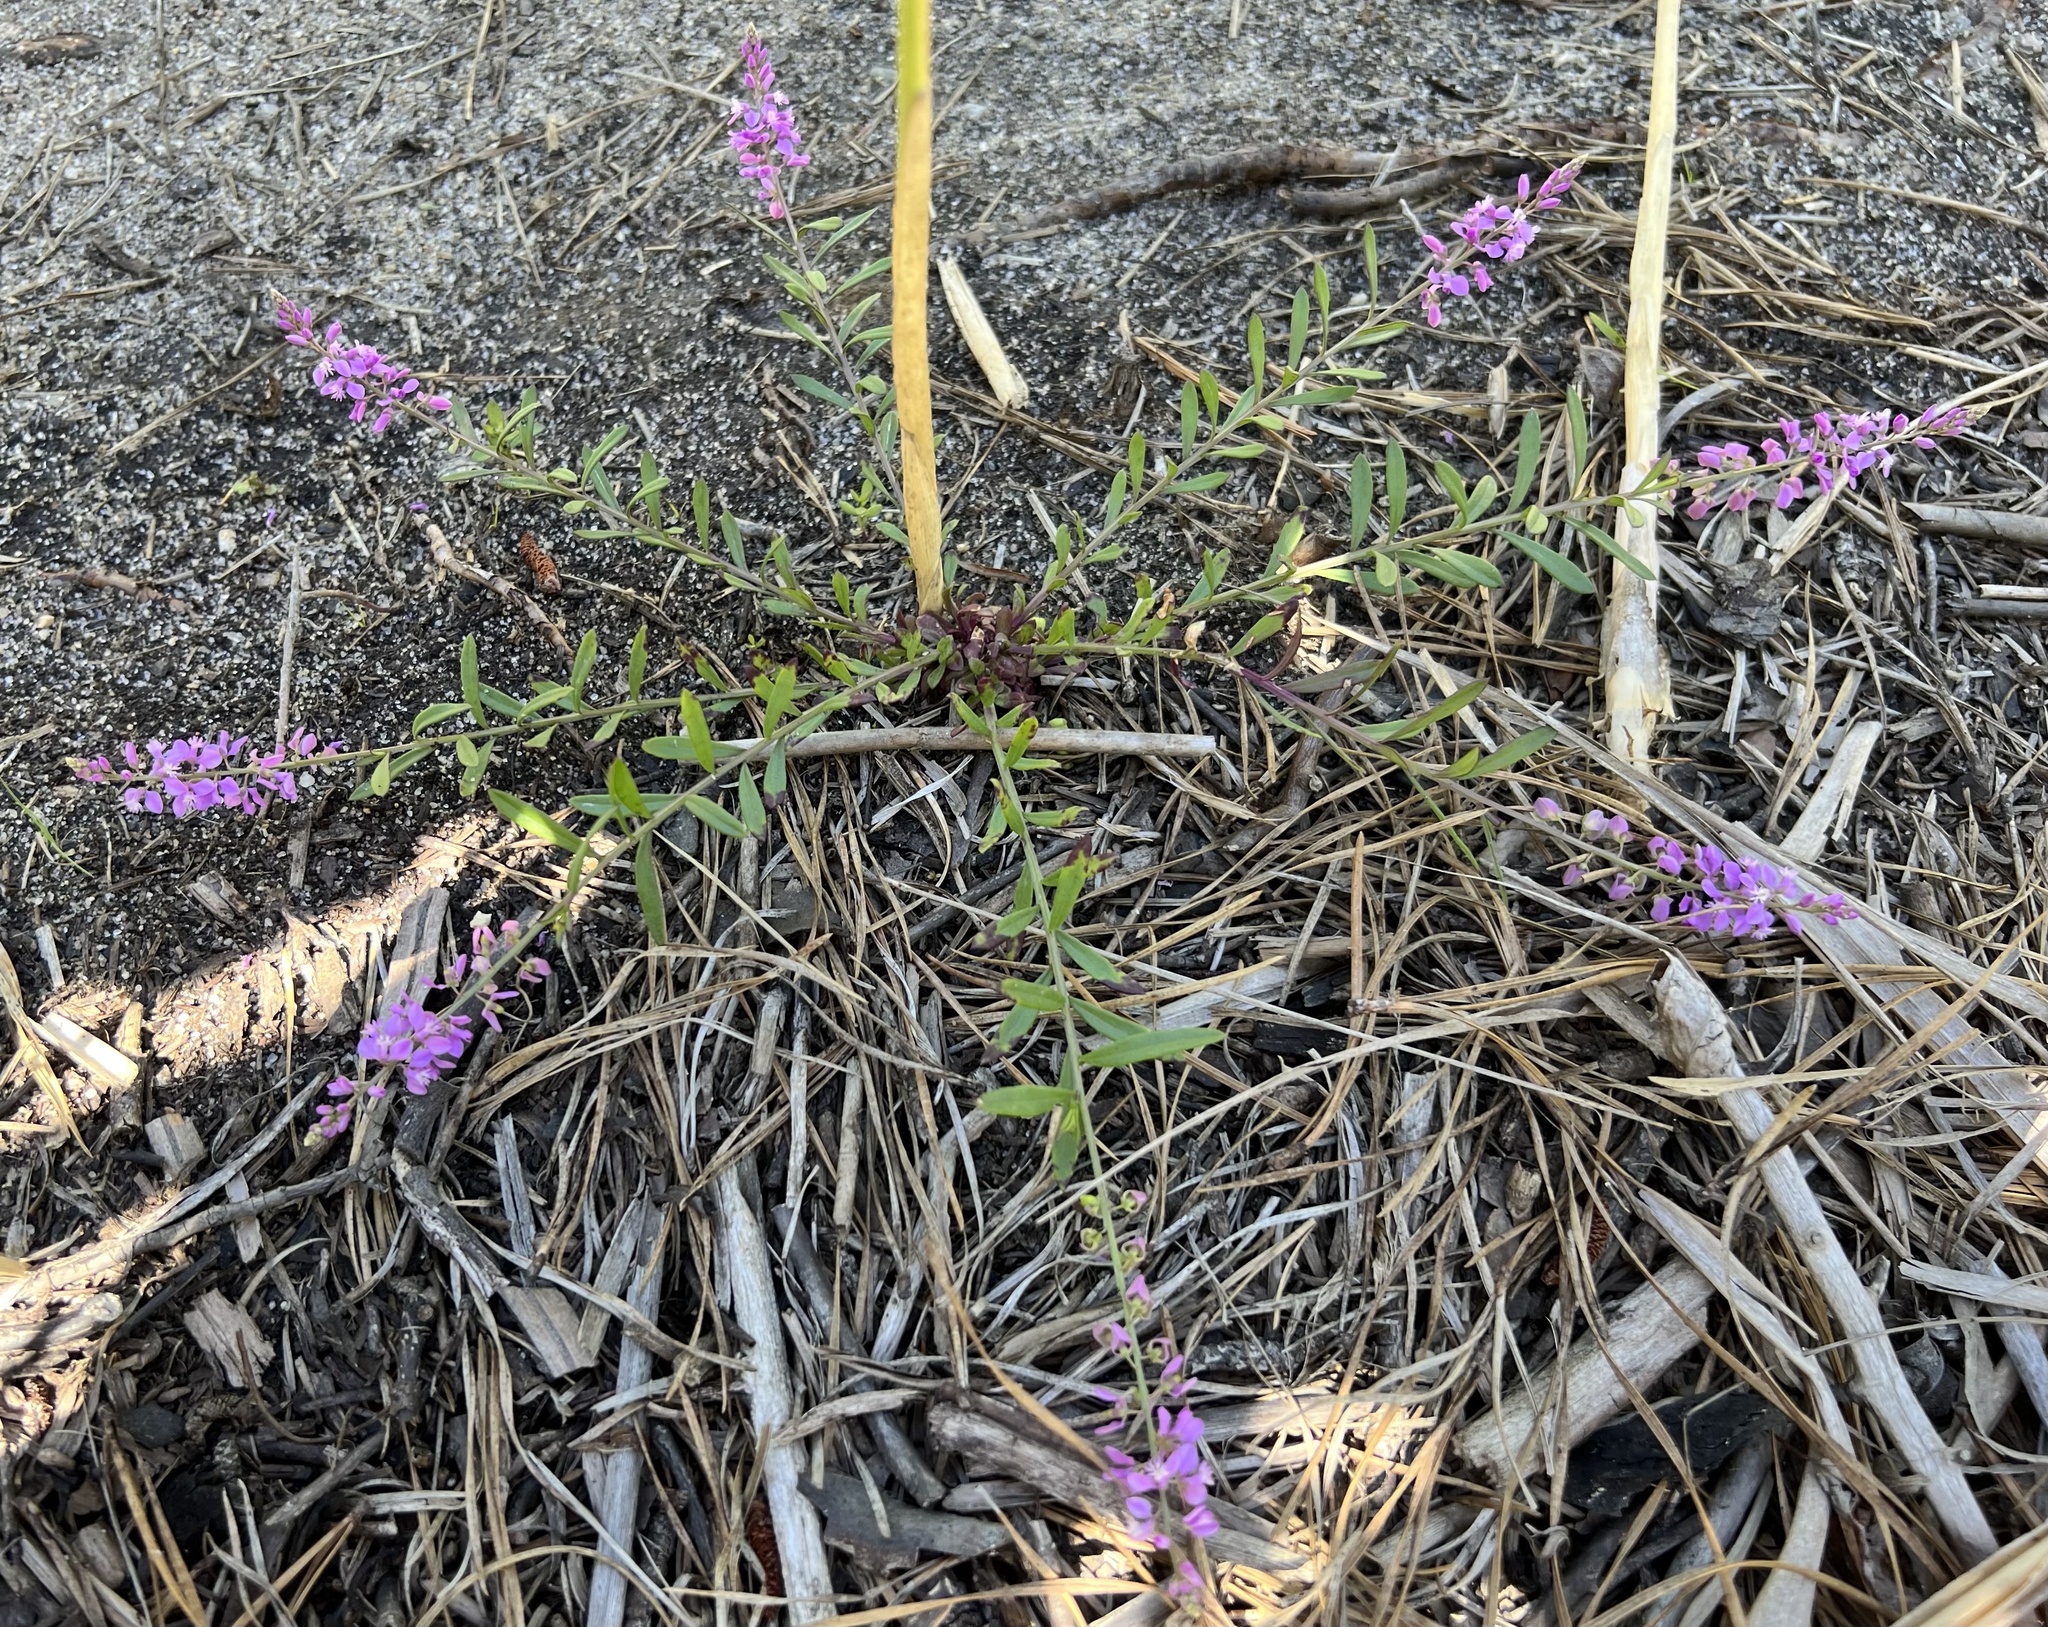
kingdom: Plantae
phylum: Tracheophyta
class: Magnoliopsida
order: Fabales
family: Polygalaceae
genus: Polygala
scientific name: Polygala polygama
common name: Bitter milkwort
